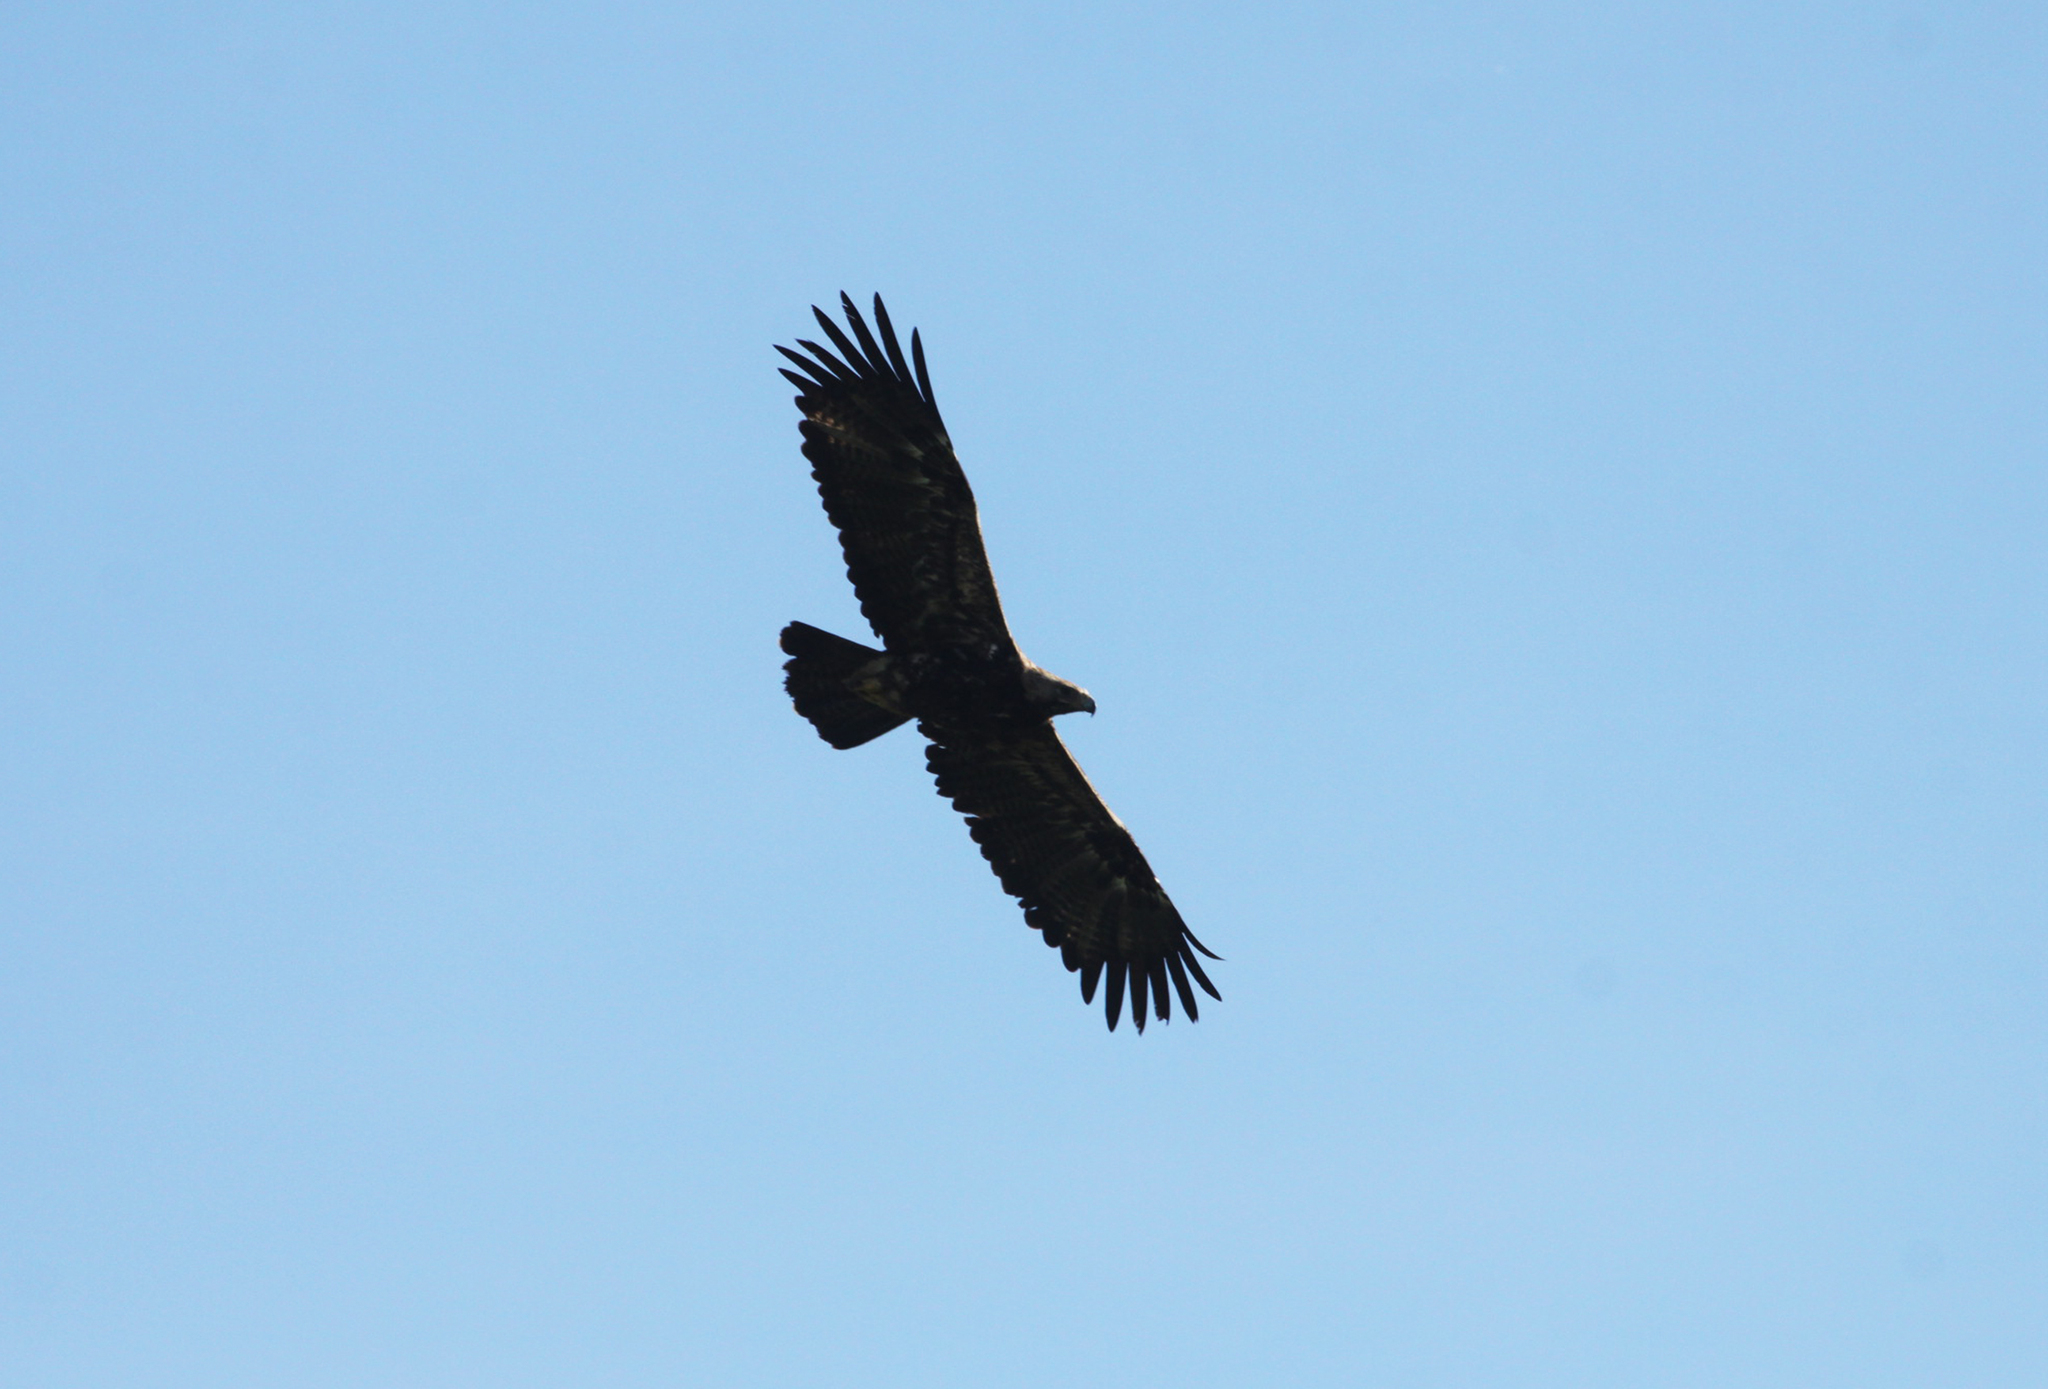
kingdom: Animalia
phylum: Chordata
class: Aves
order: Accipitriformes
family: Accipitridae
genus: Aquila
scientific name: Aquila heliaca
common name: Eastern imperial eagle
